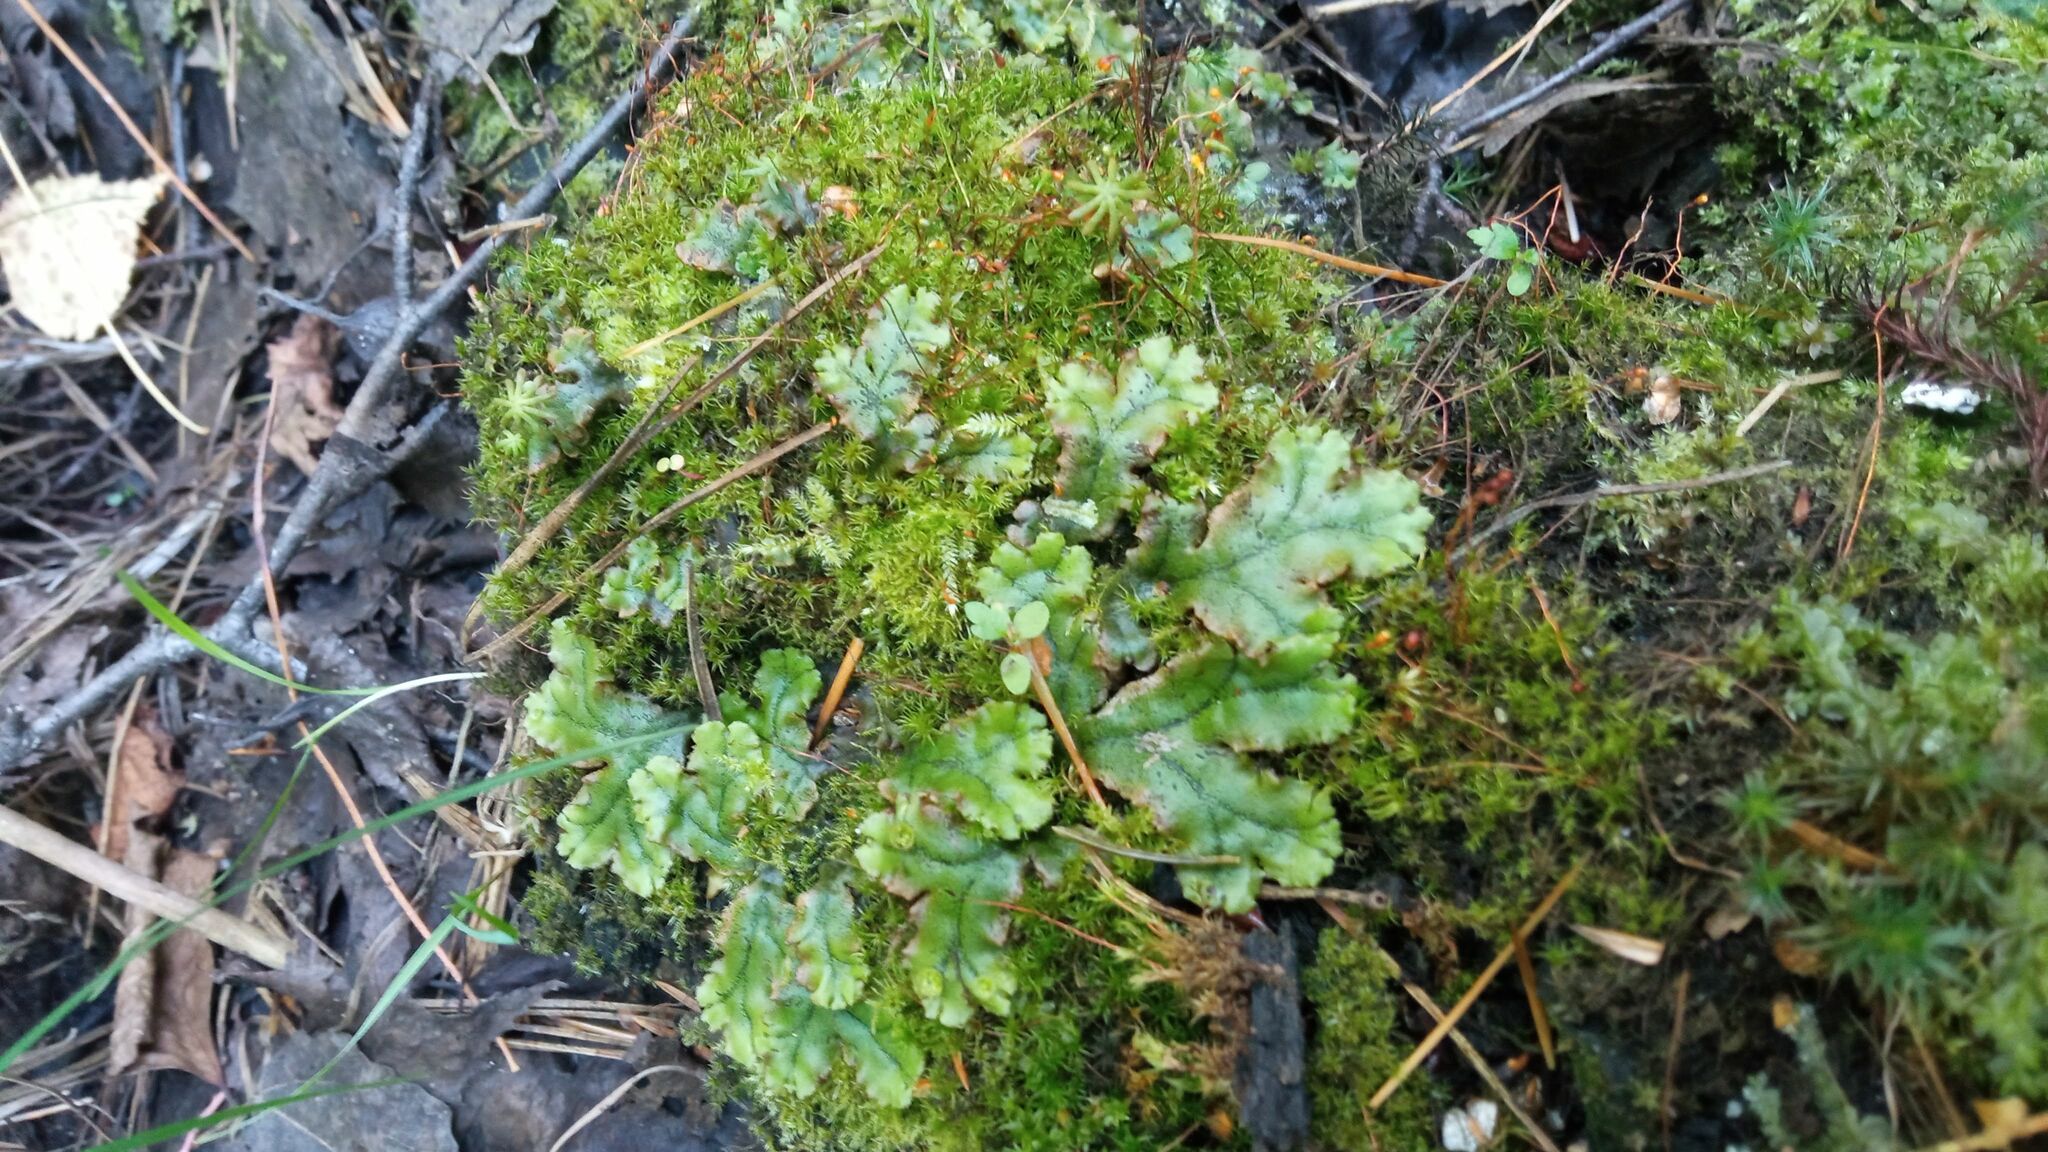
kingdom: Plantae
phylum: Marchantiophyta
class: Marchantiopsida
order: Marchantiales
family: Marchantiaceae
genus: Marchantia
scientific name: Marchantia polymorpha
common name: Common liverwort
